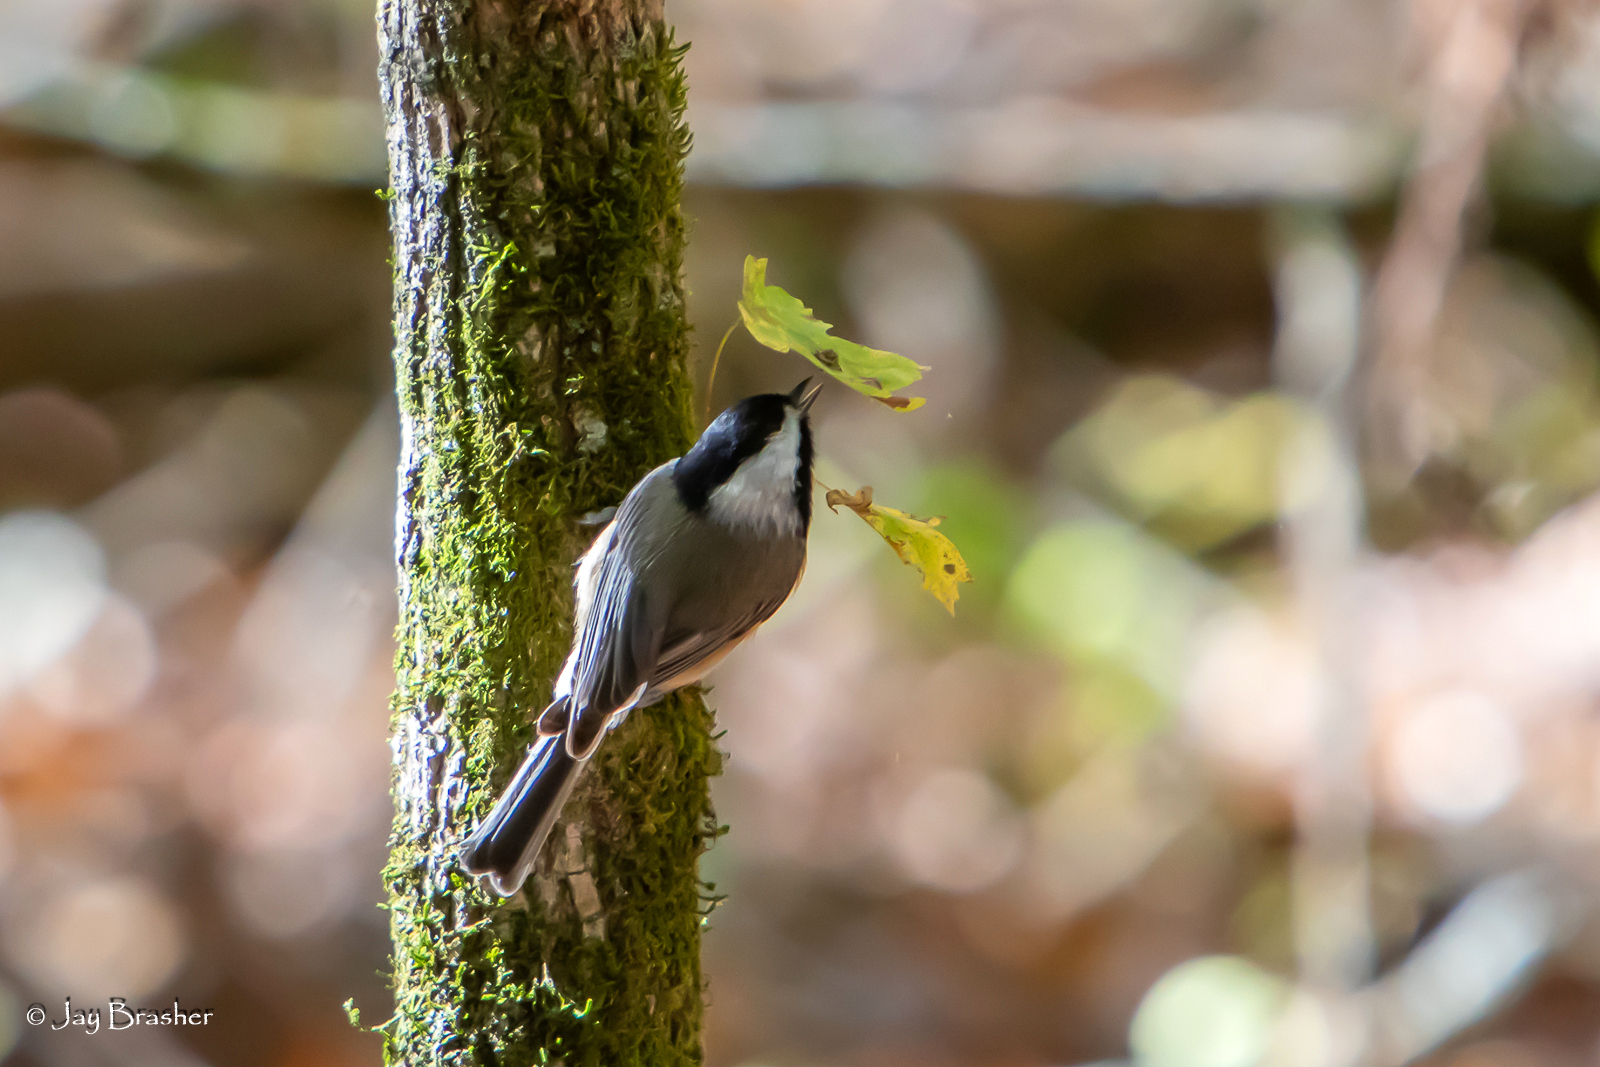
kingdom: Animalia
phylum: Chordata
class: Aves
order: Passeriformes
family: Paridae
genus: Poecile
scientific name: Poecile carolinensis
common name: Carolina chickadee
